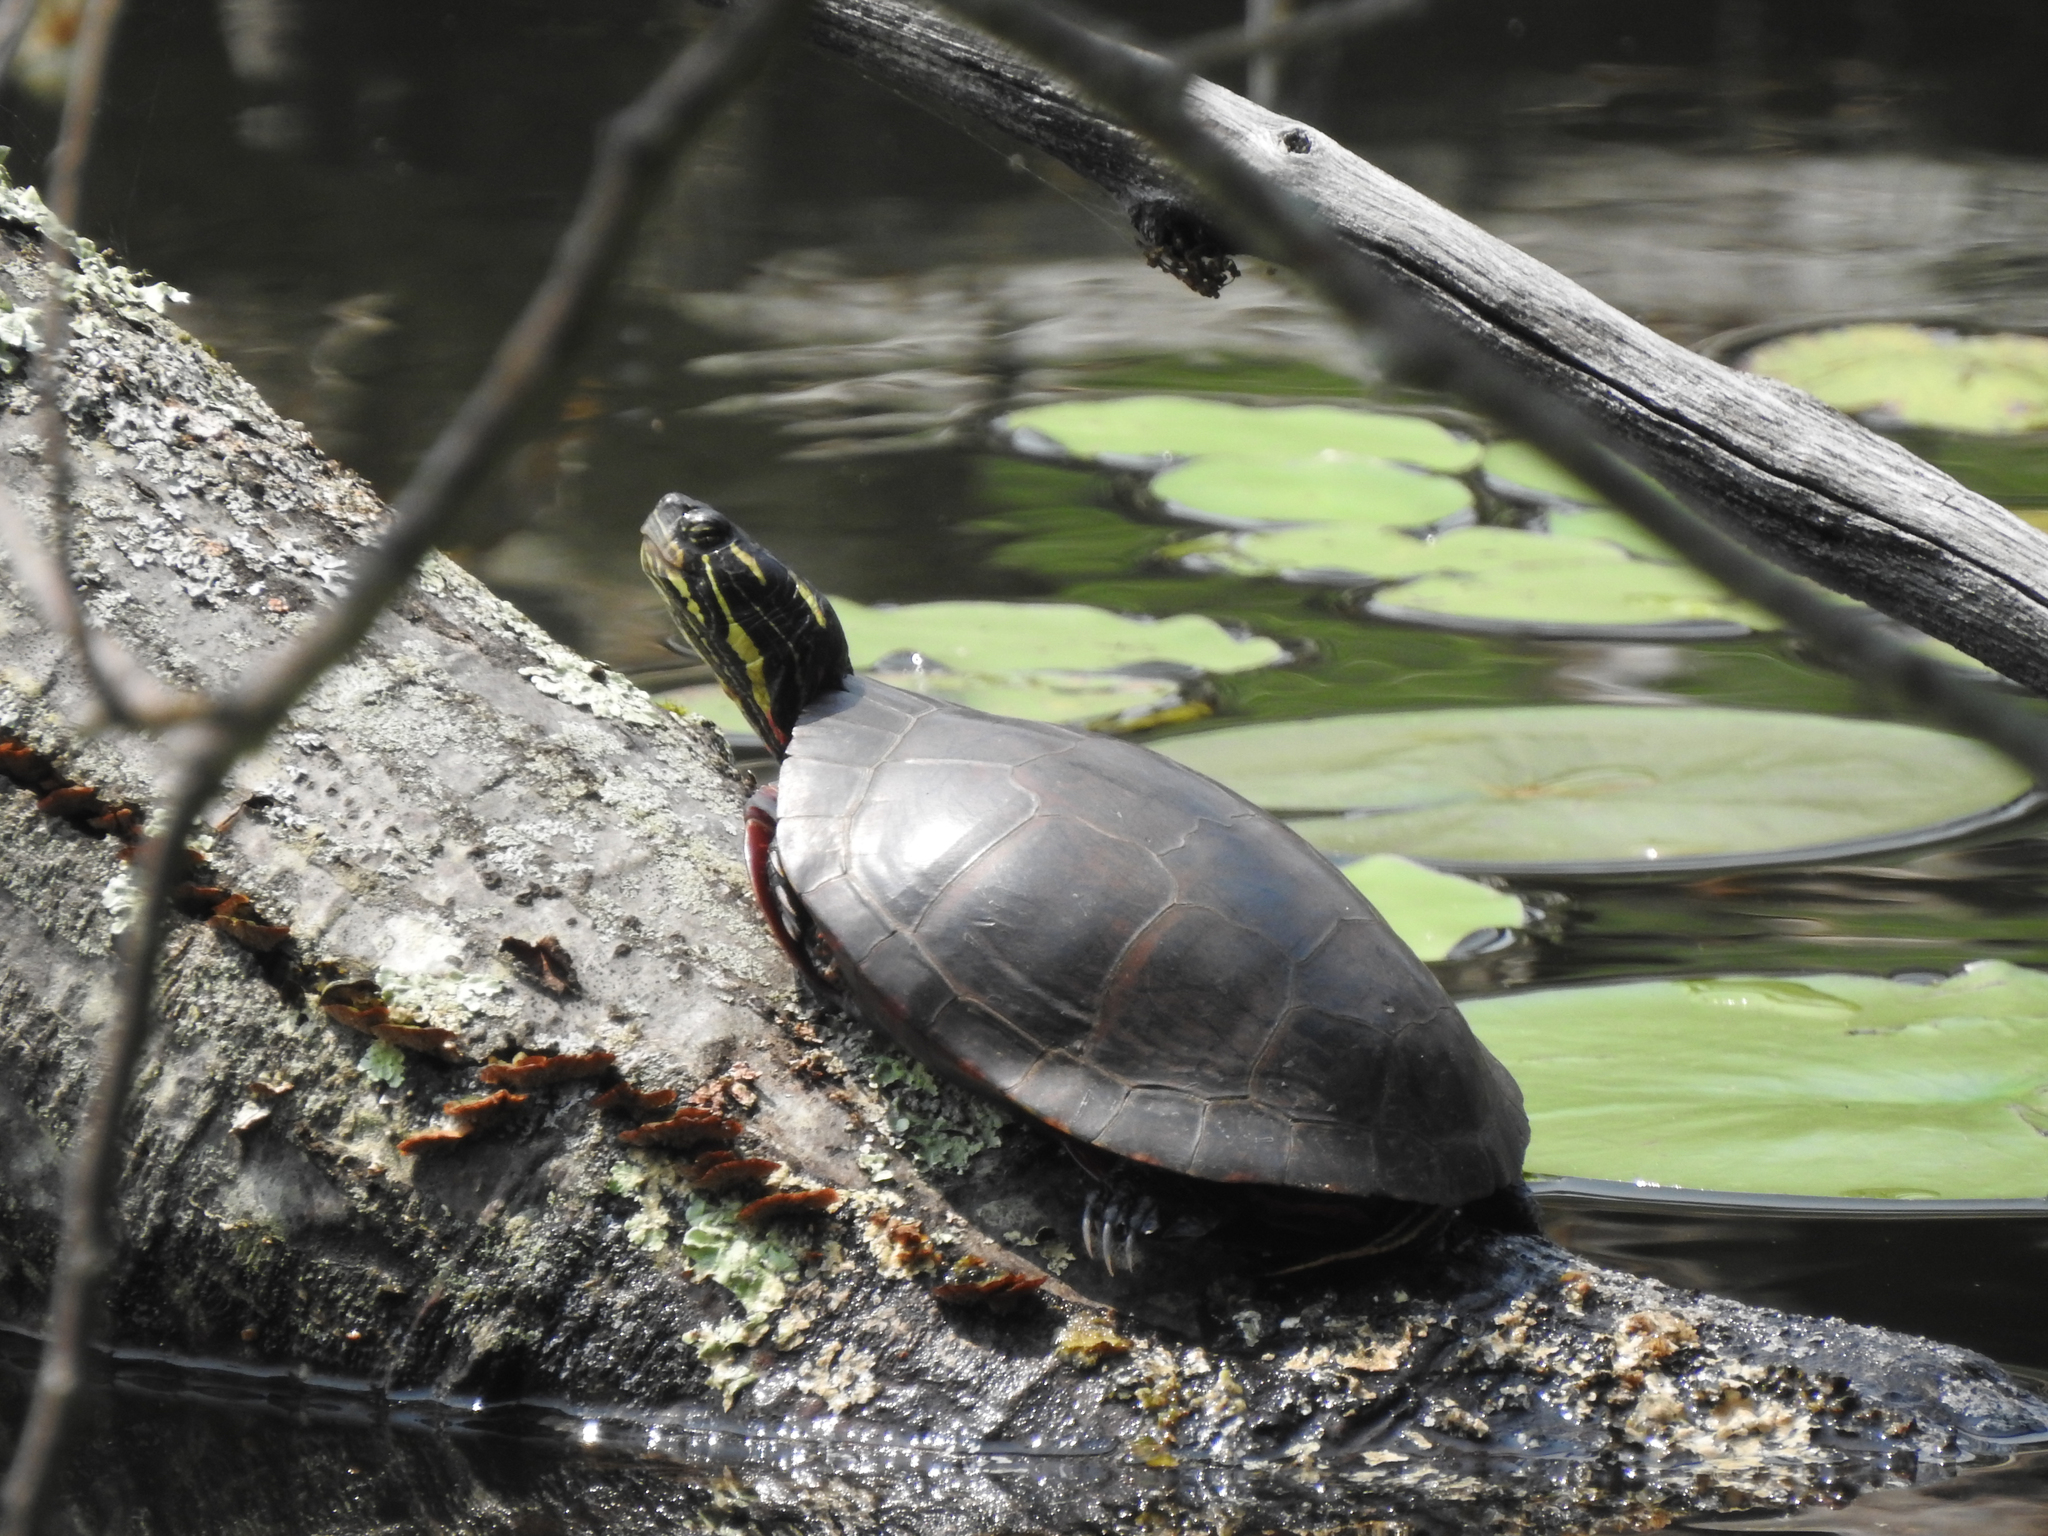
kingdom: Animalia
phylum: Chordata
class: Testudines
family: Emydidae
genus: Chrysemys
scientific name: Chrysemys picta
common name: Painted turtle
